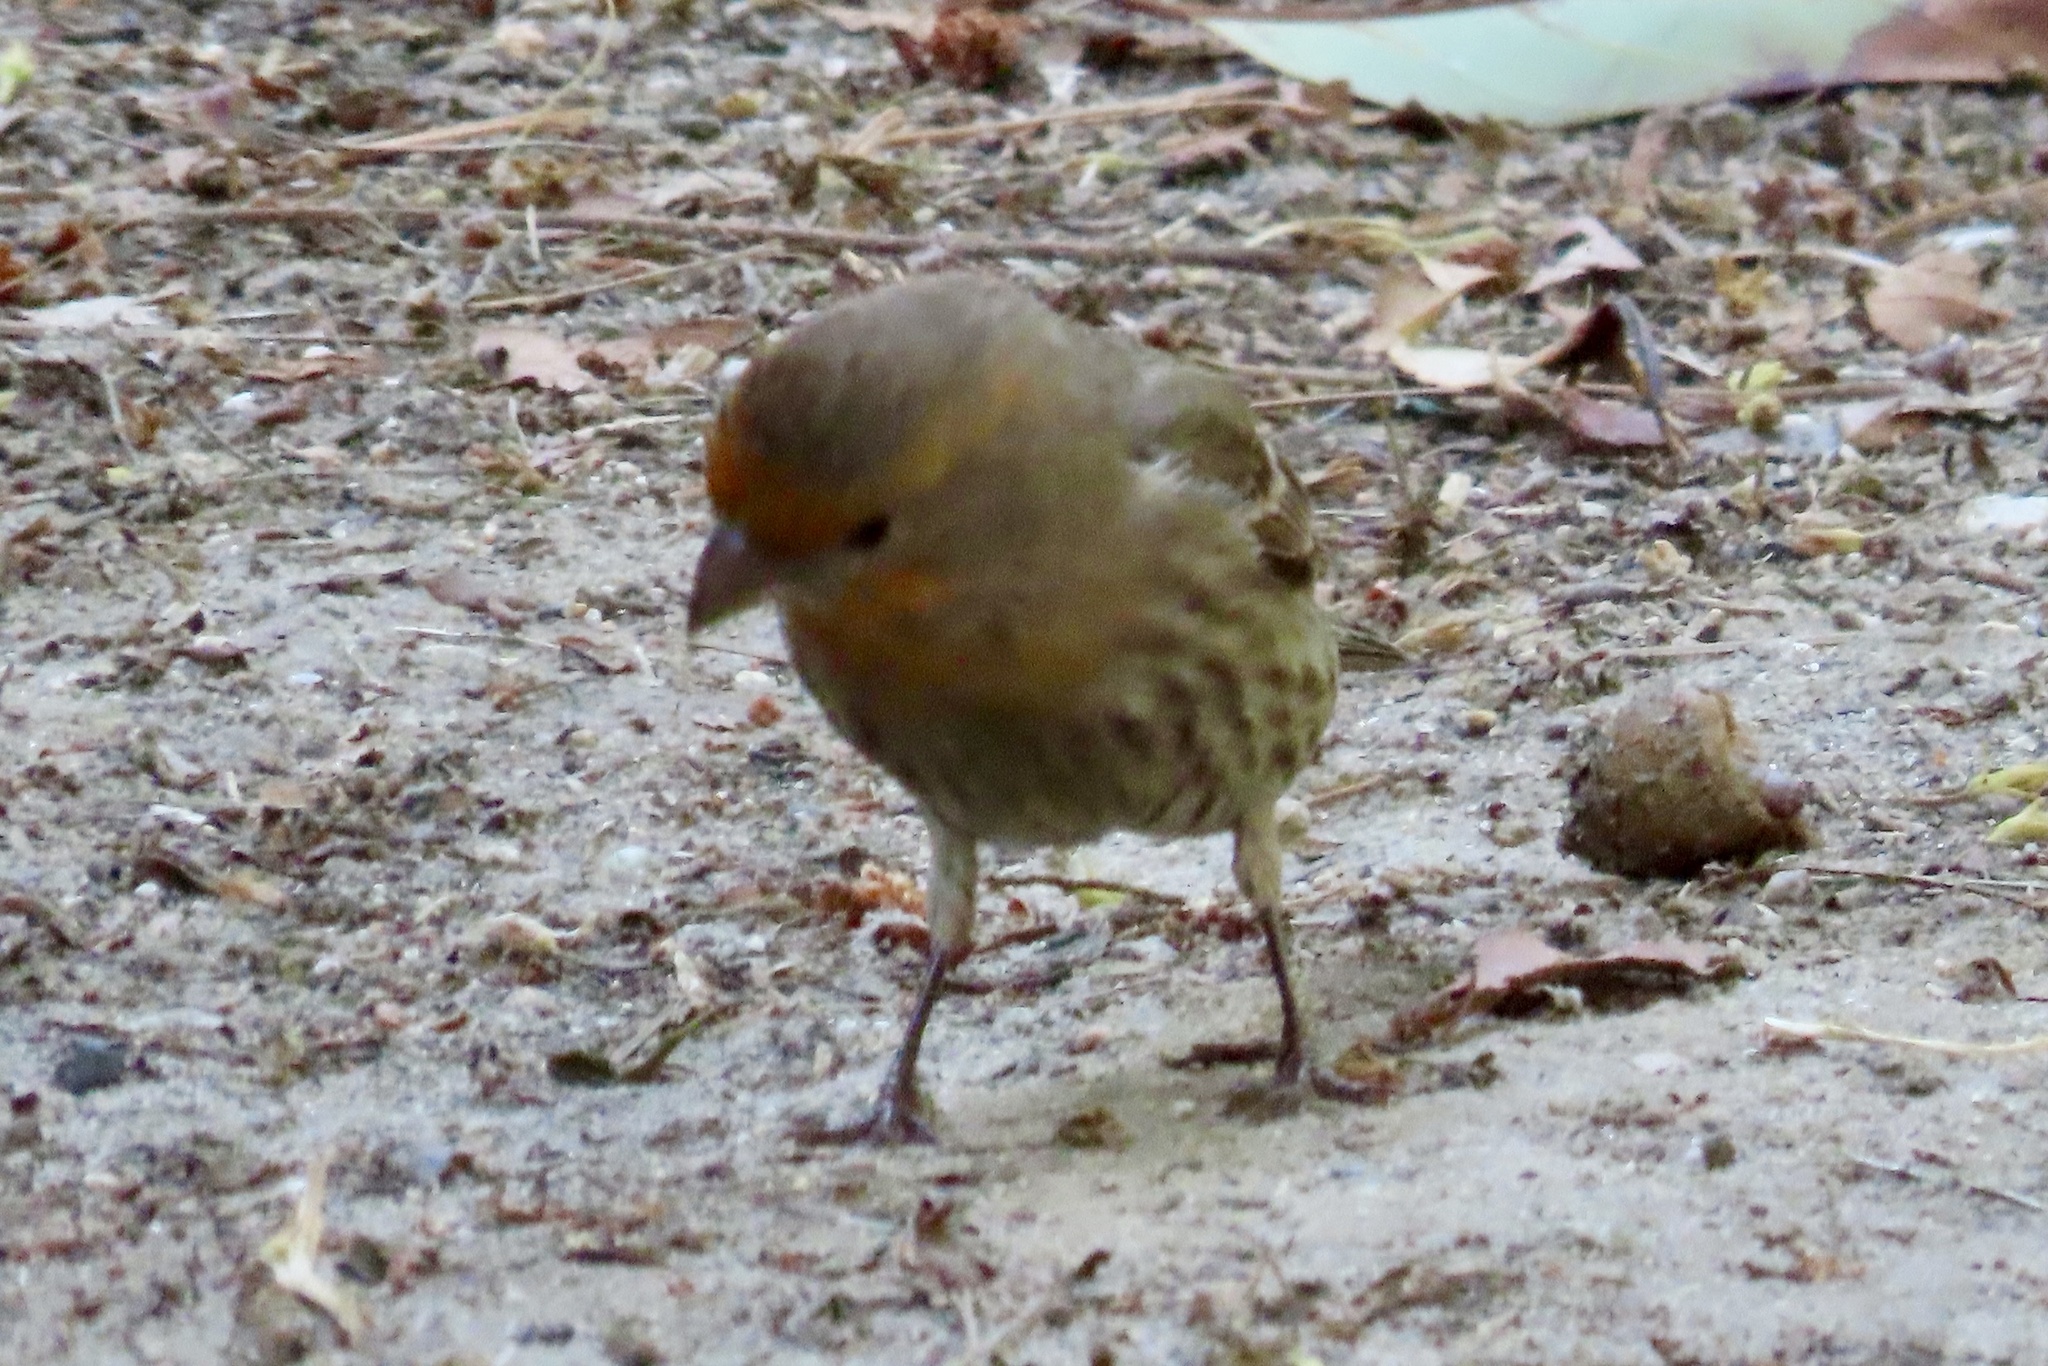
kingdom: Animalia
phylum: Chordata
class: Aves
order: Passeriformes
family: Fringillidae
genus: Haemorhous
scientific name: Haemorhous mexicanus
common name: House finch
